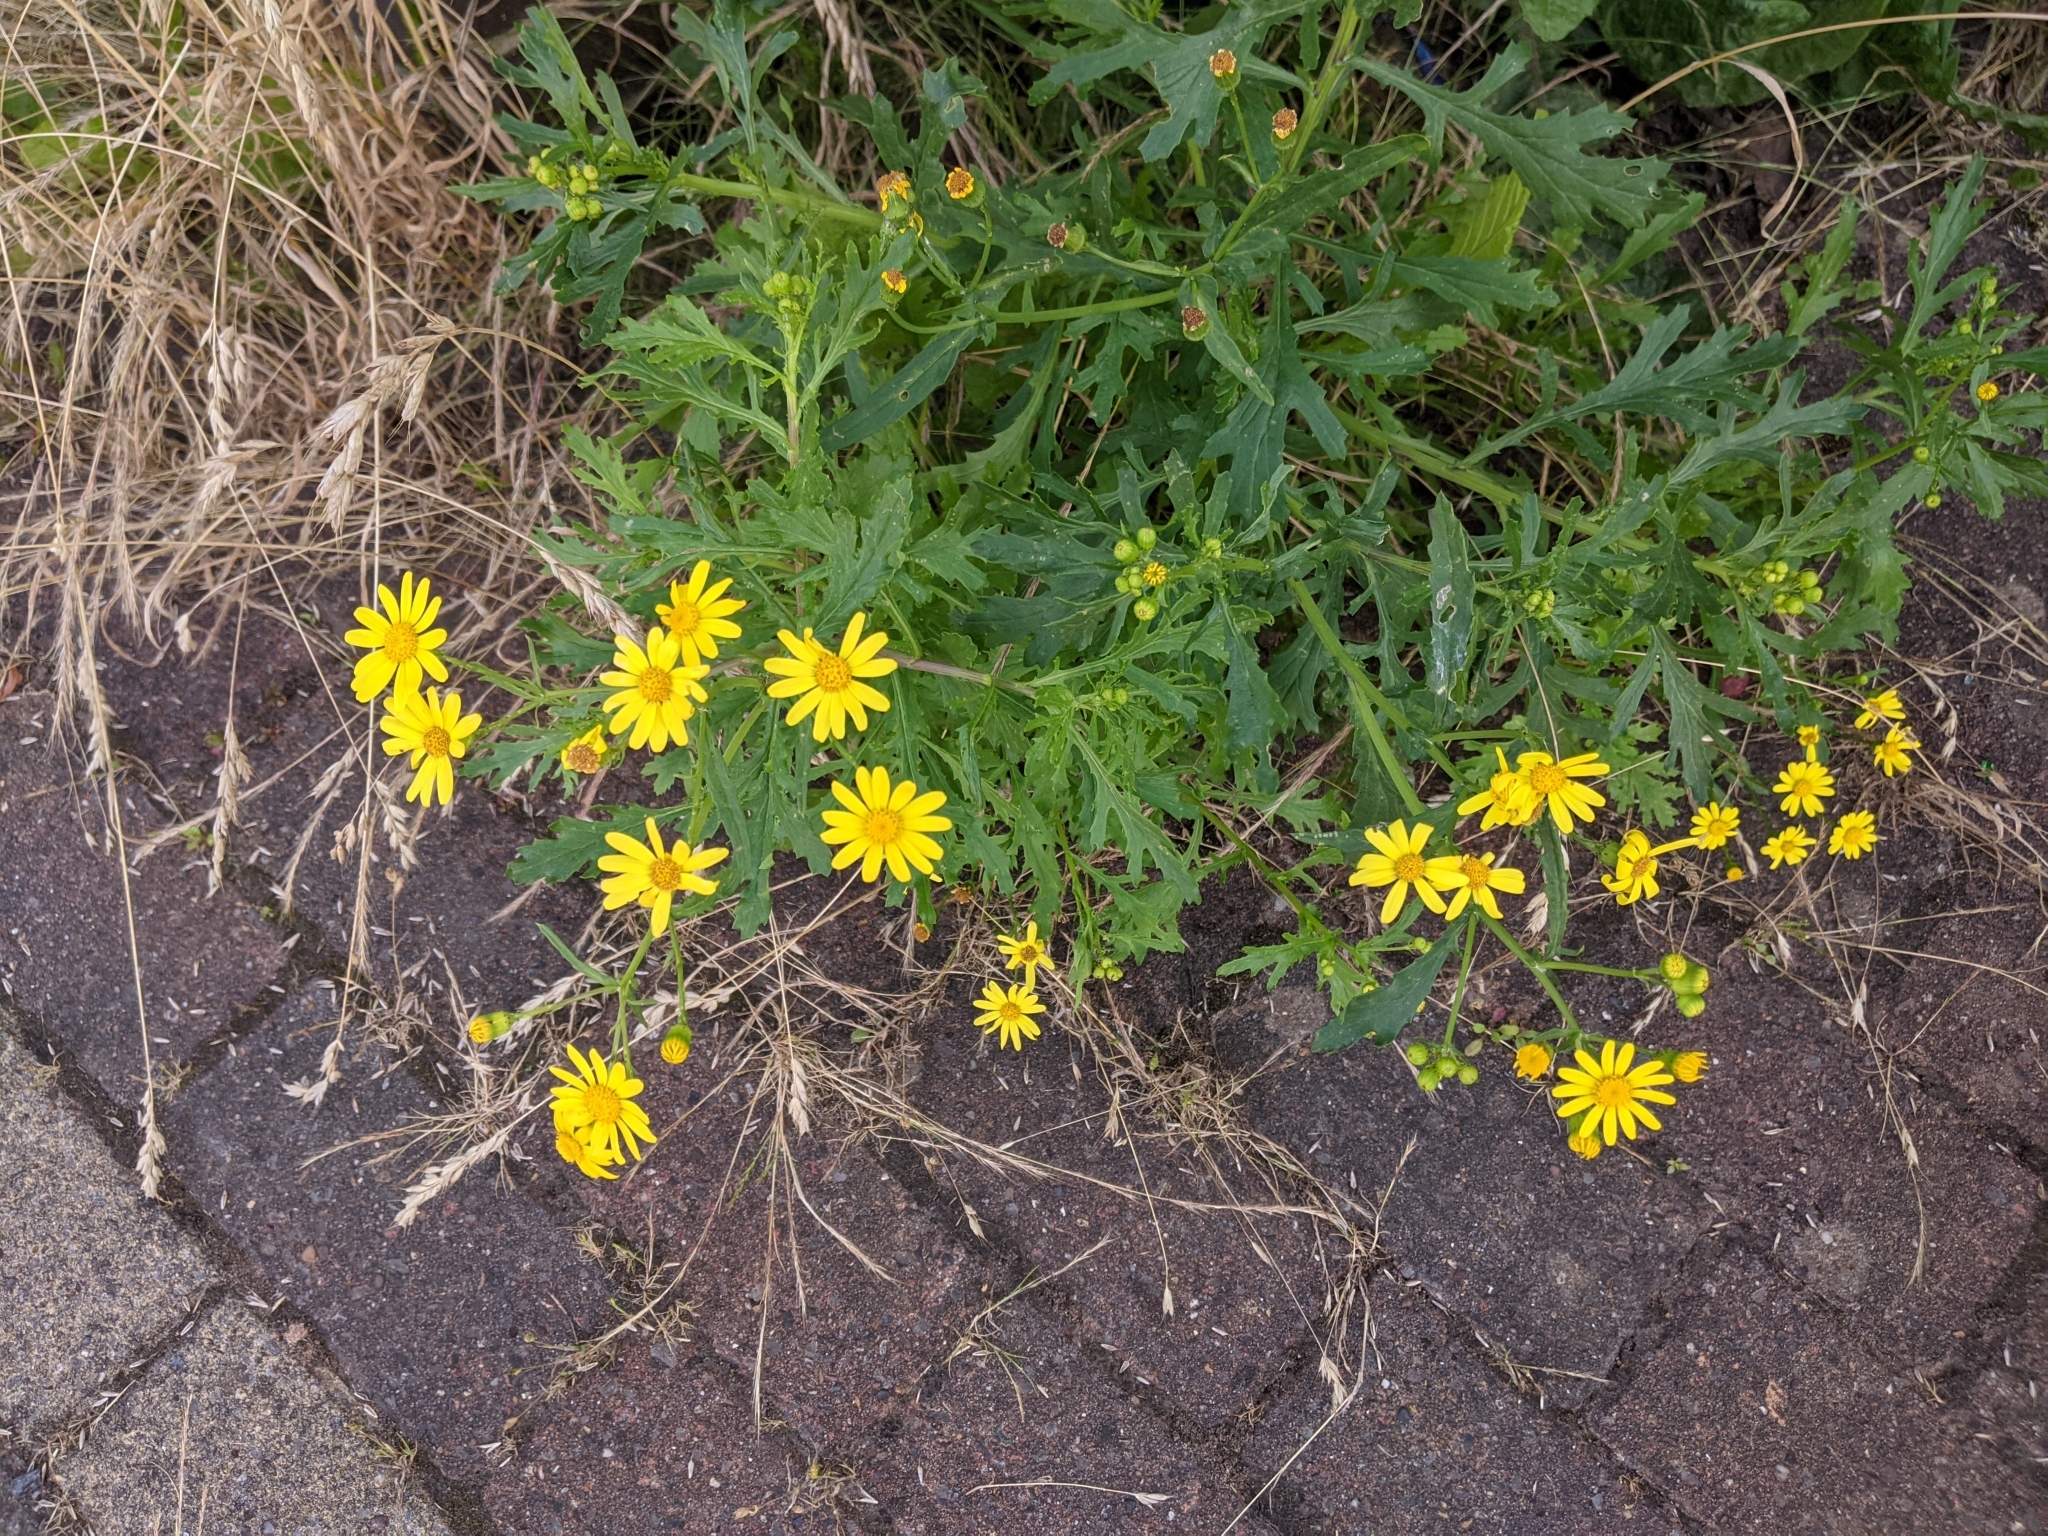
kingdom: Plantae
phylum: Tracheophyta
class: Magnoliopsida
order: Asterales
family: Asteraceae
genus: Senecio
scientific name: Senecio squalidus
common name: Oxford ragwort
